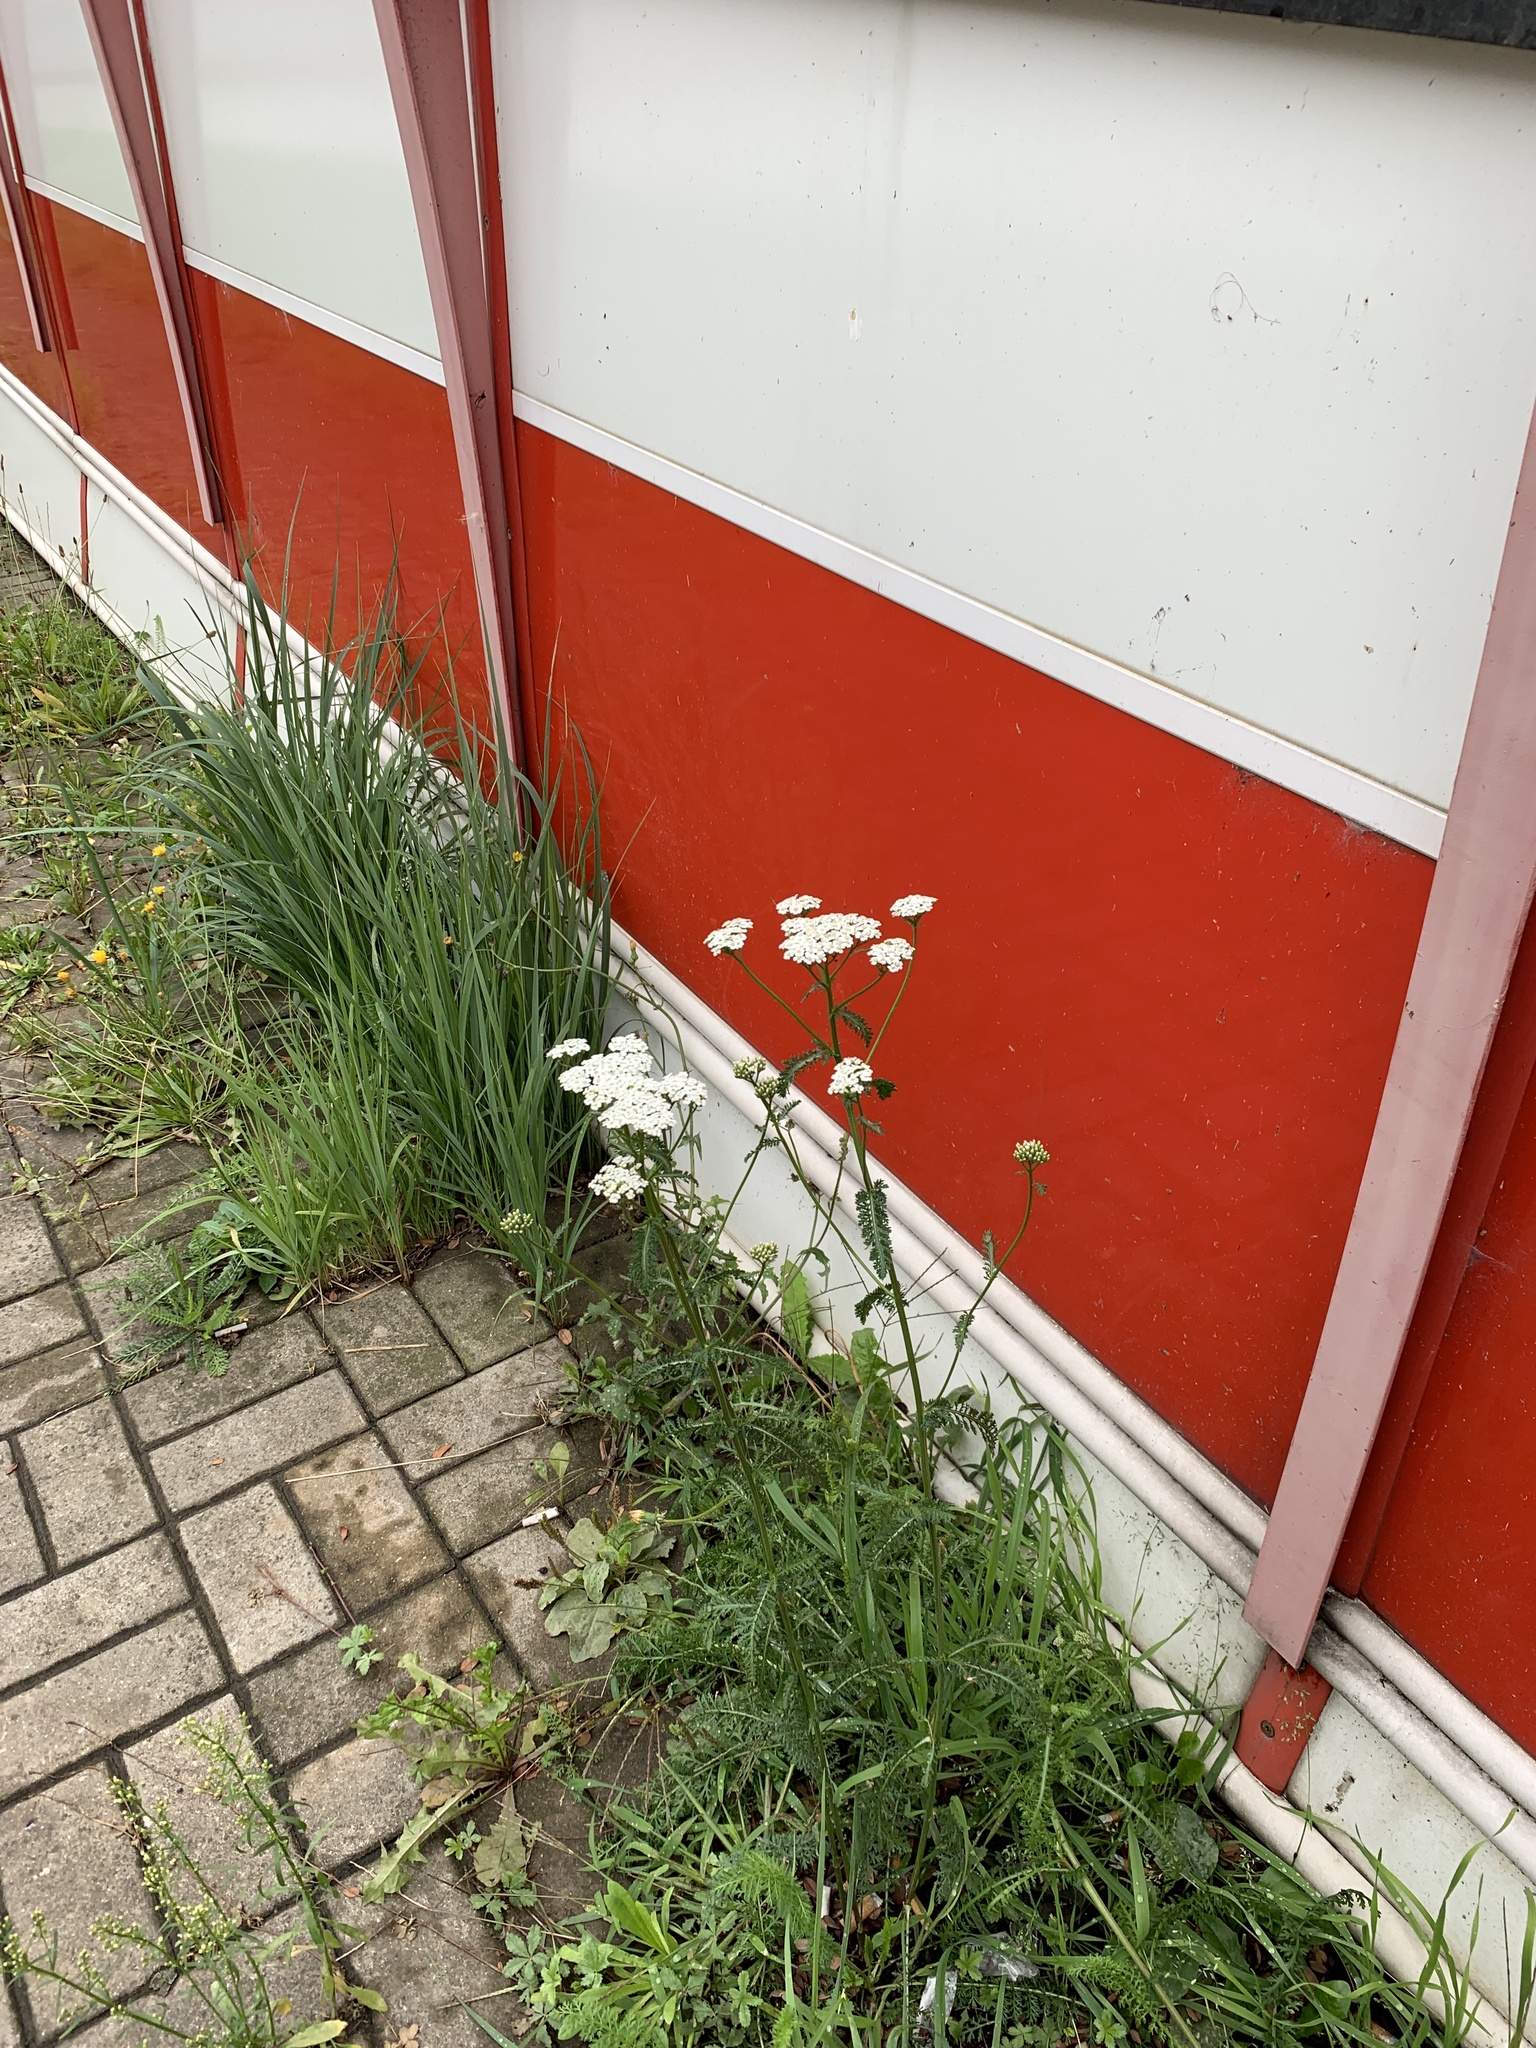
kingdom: Plantae
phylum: Tracheophyta
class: Magnoliopsida
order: Asterales
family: Asteraceae
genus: Achillea
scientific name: Achillea millefolium
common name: Yarrow
